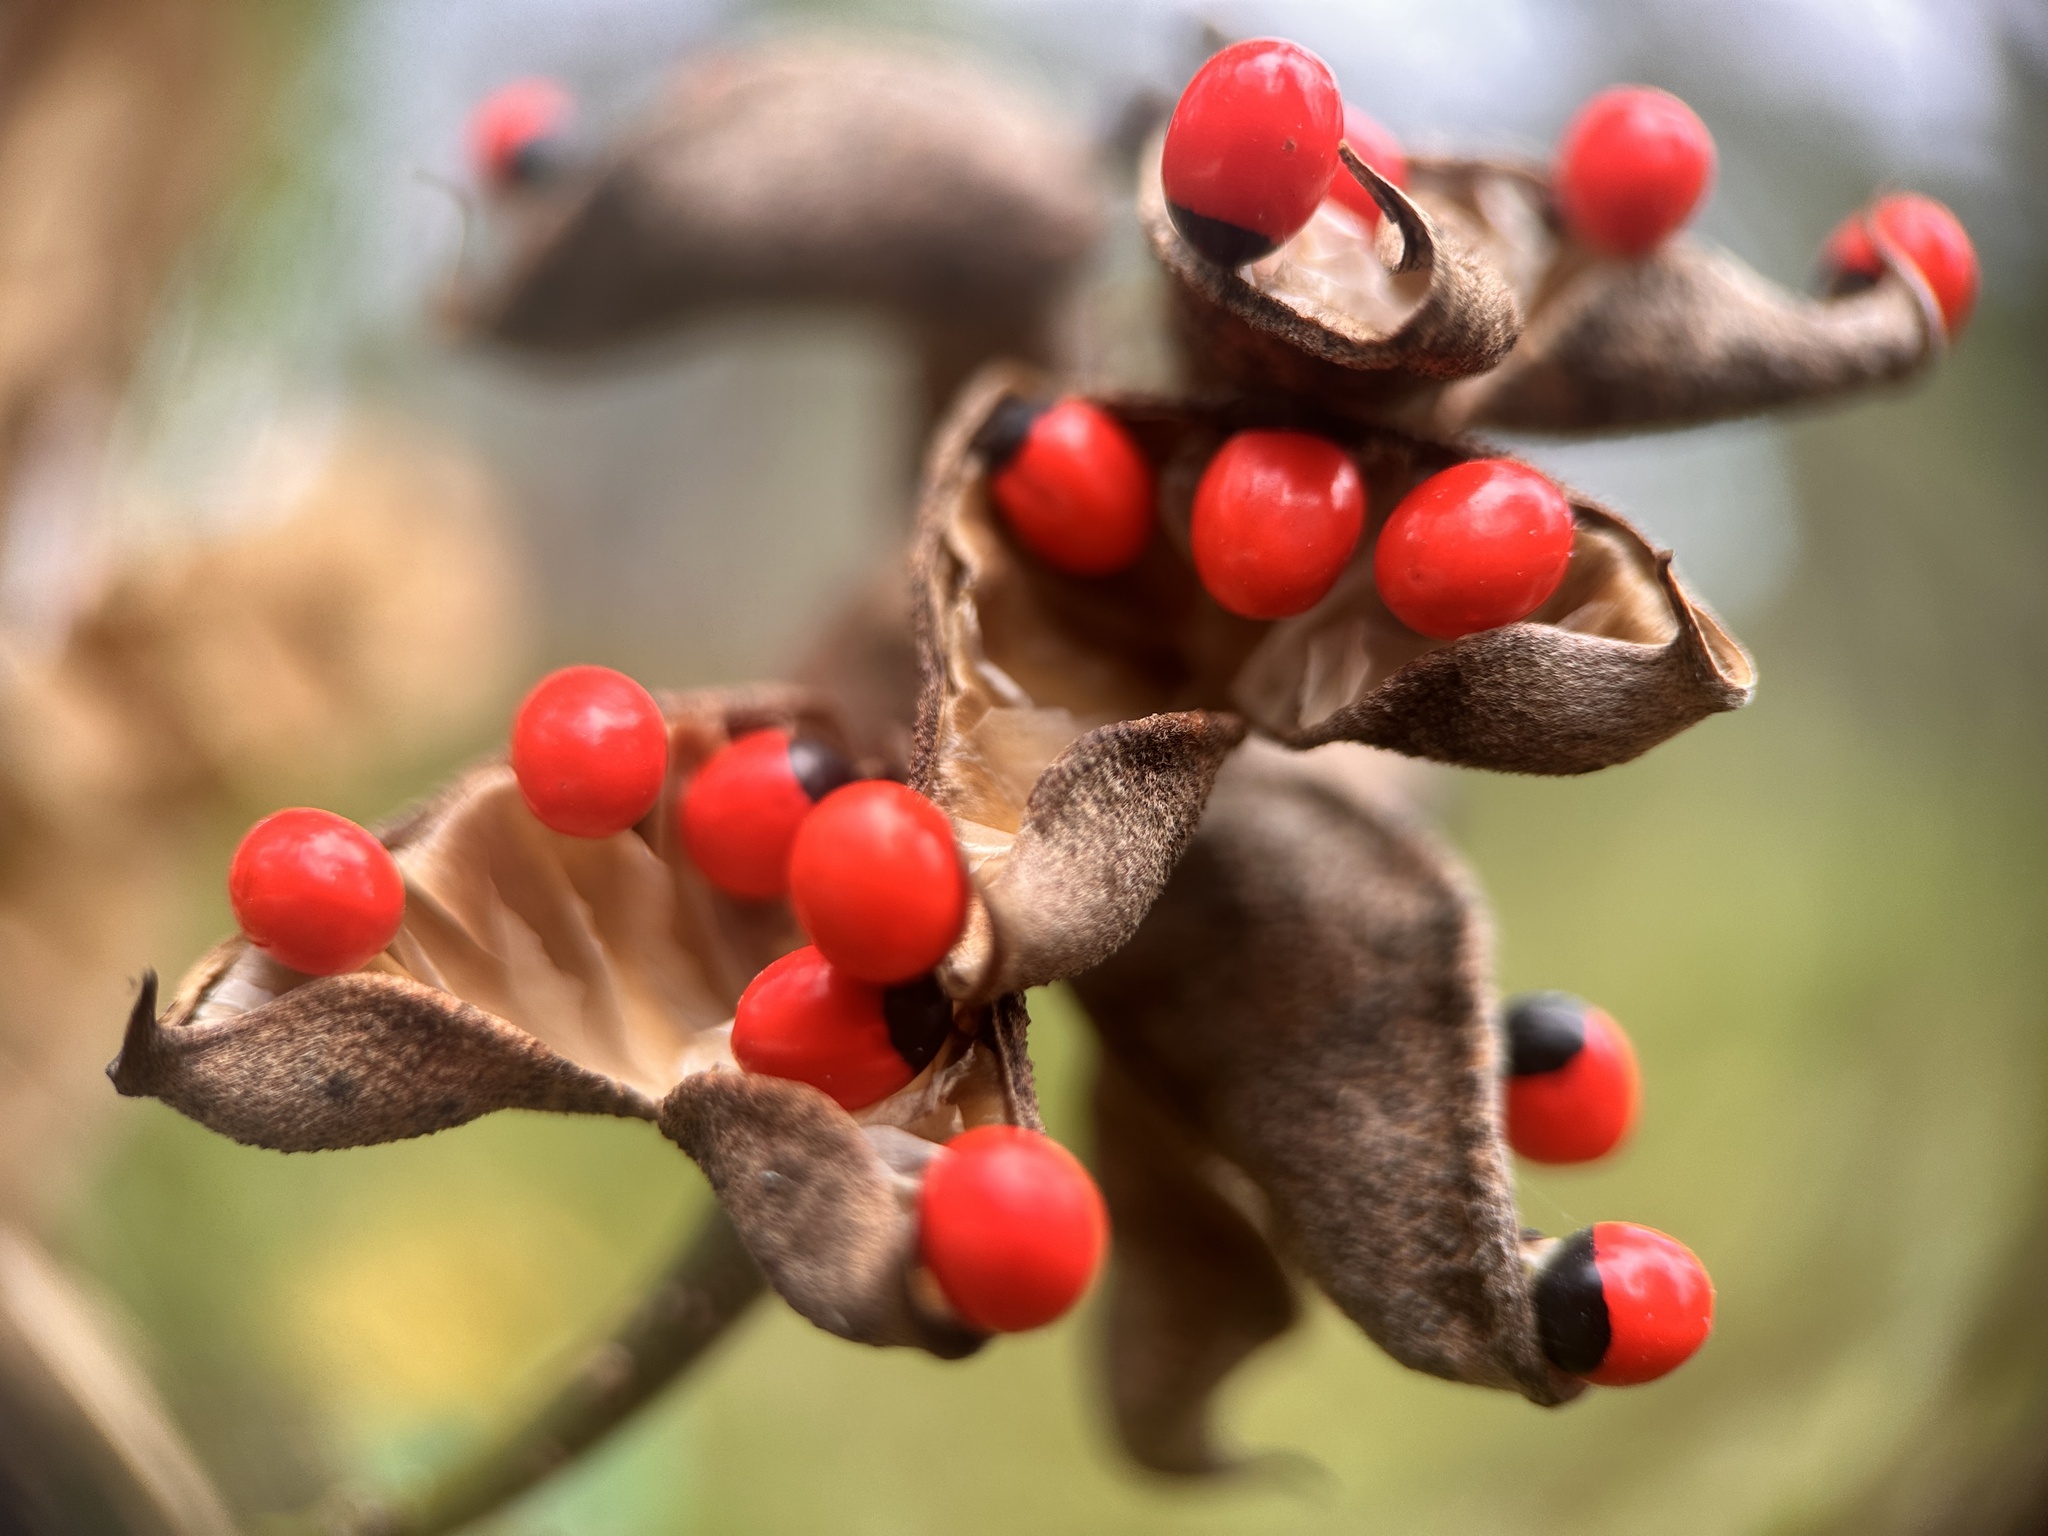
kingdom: Plantae
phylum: Tracheophyta
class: Magnoliopsida
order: Fabales
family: Fabaceae
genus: Abrus
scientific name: Abrus precatorius
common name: Rosarypea
